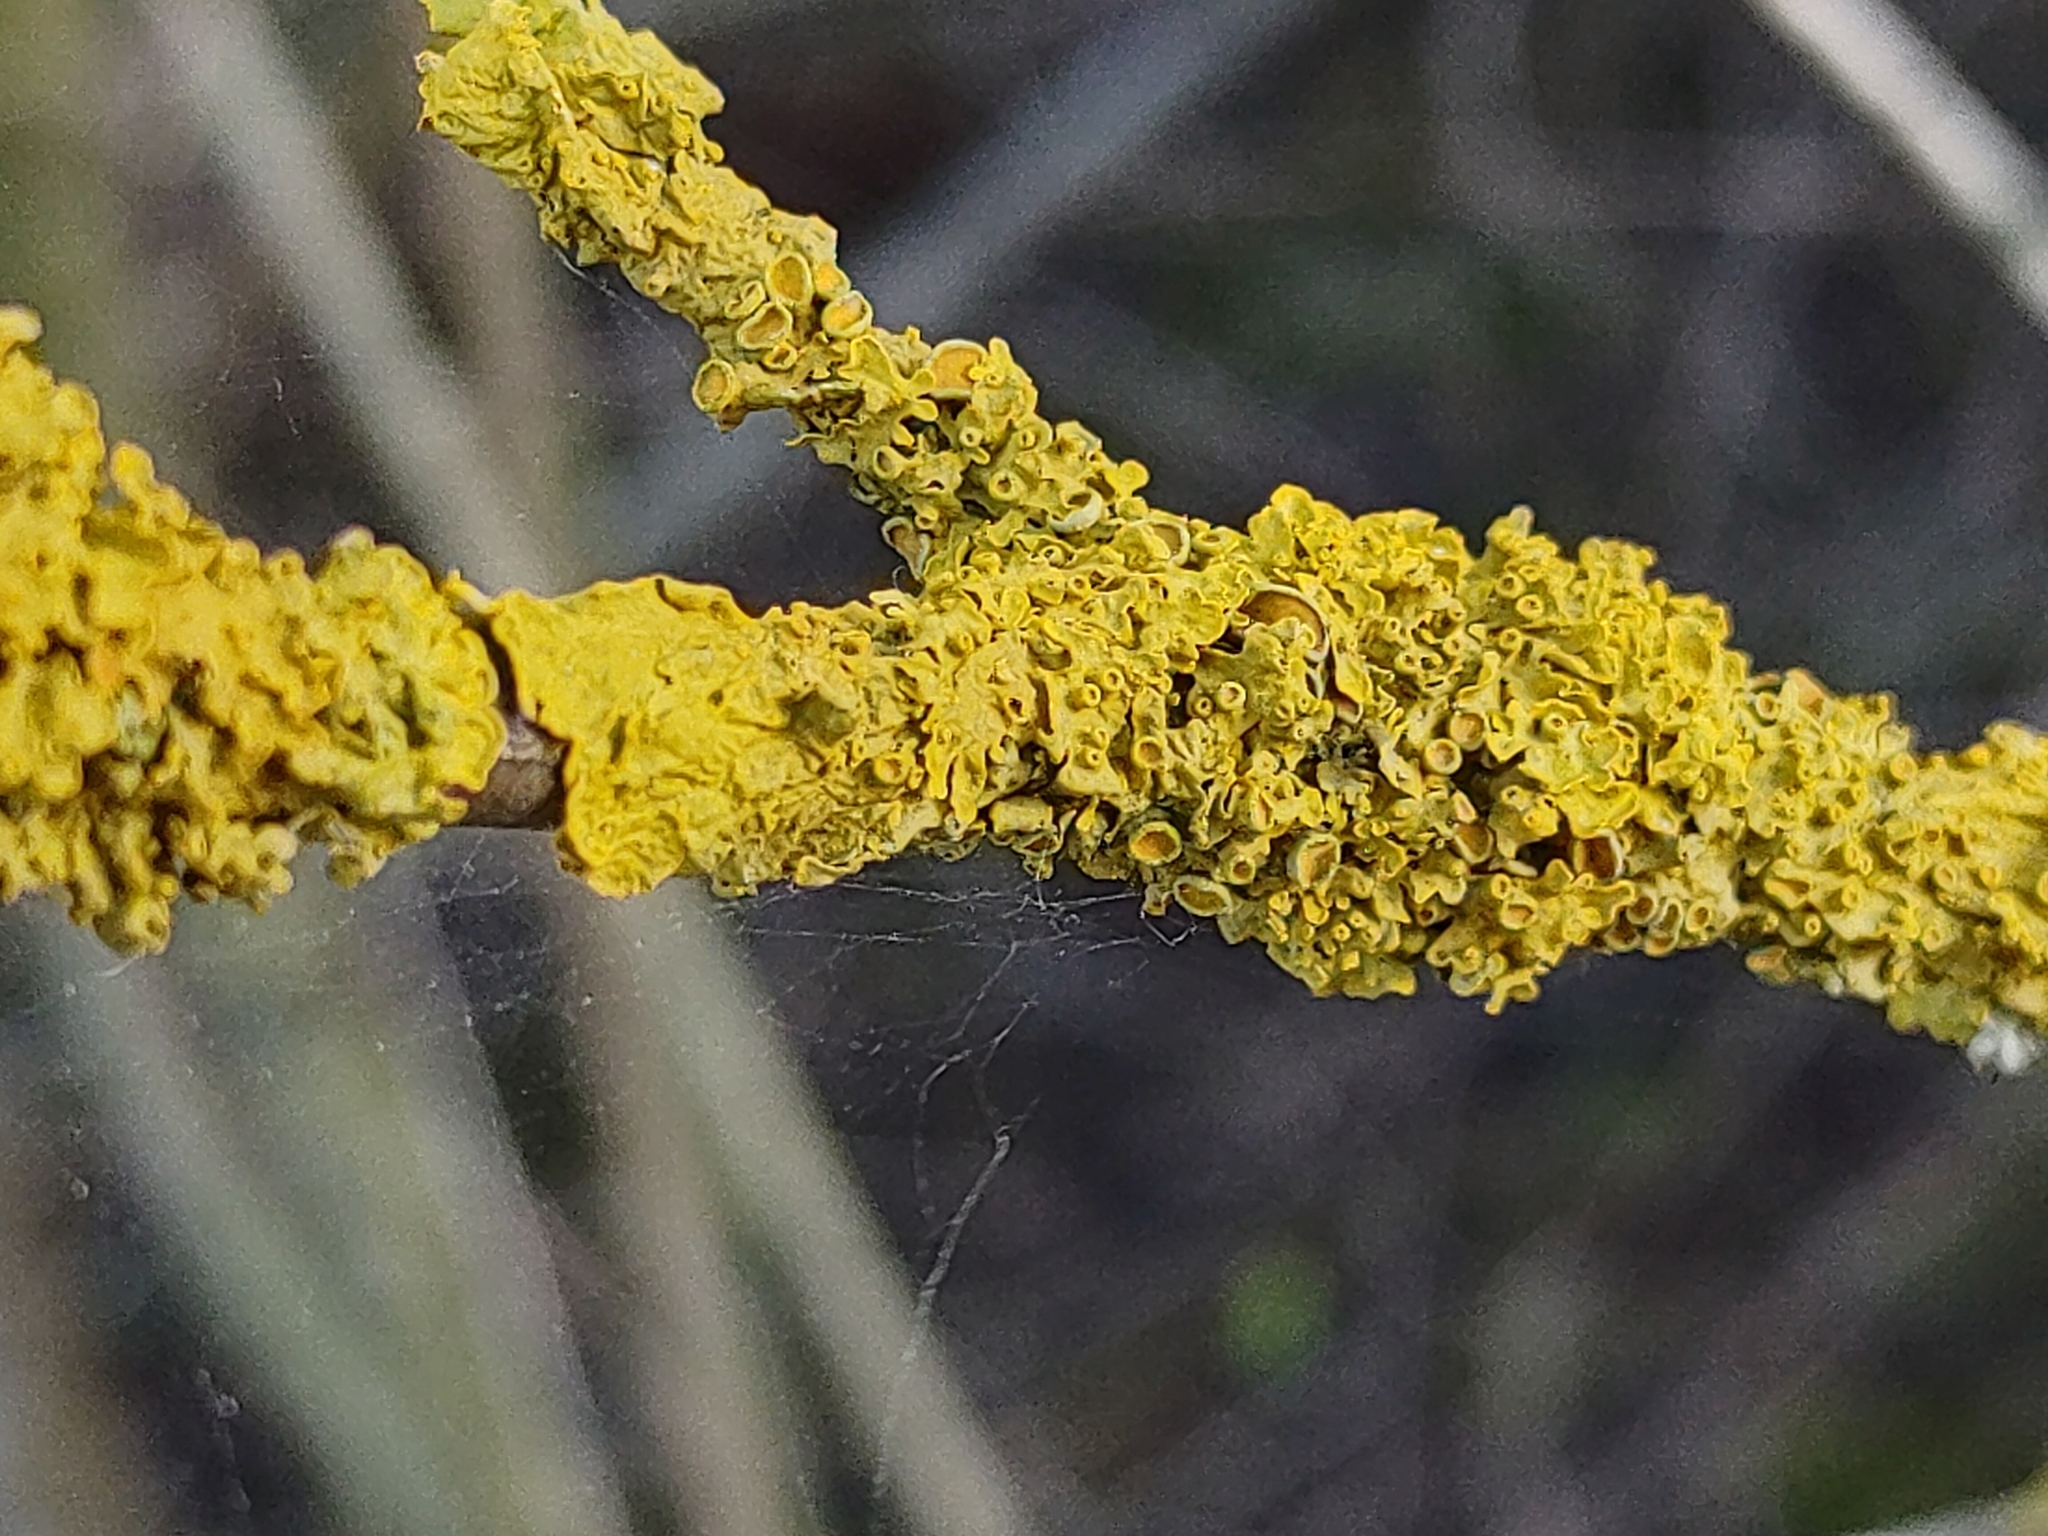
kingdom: Fungi
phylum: Ascomycota
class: Lecanoromycetes
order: Teloschistales
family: Teloschistaceae
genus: Xanthoria
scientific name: Xanthoria parietina
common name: Common orange lichen
